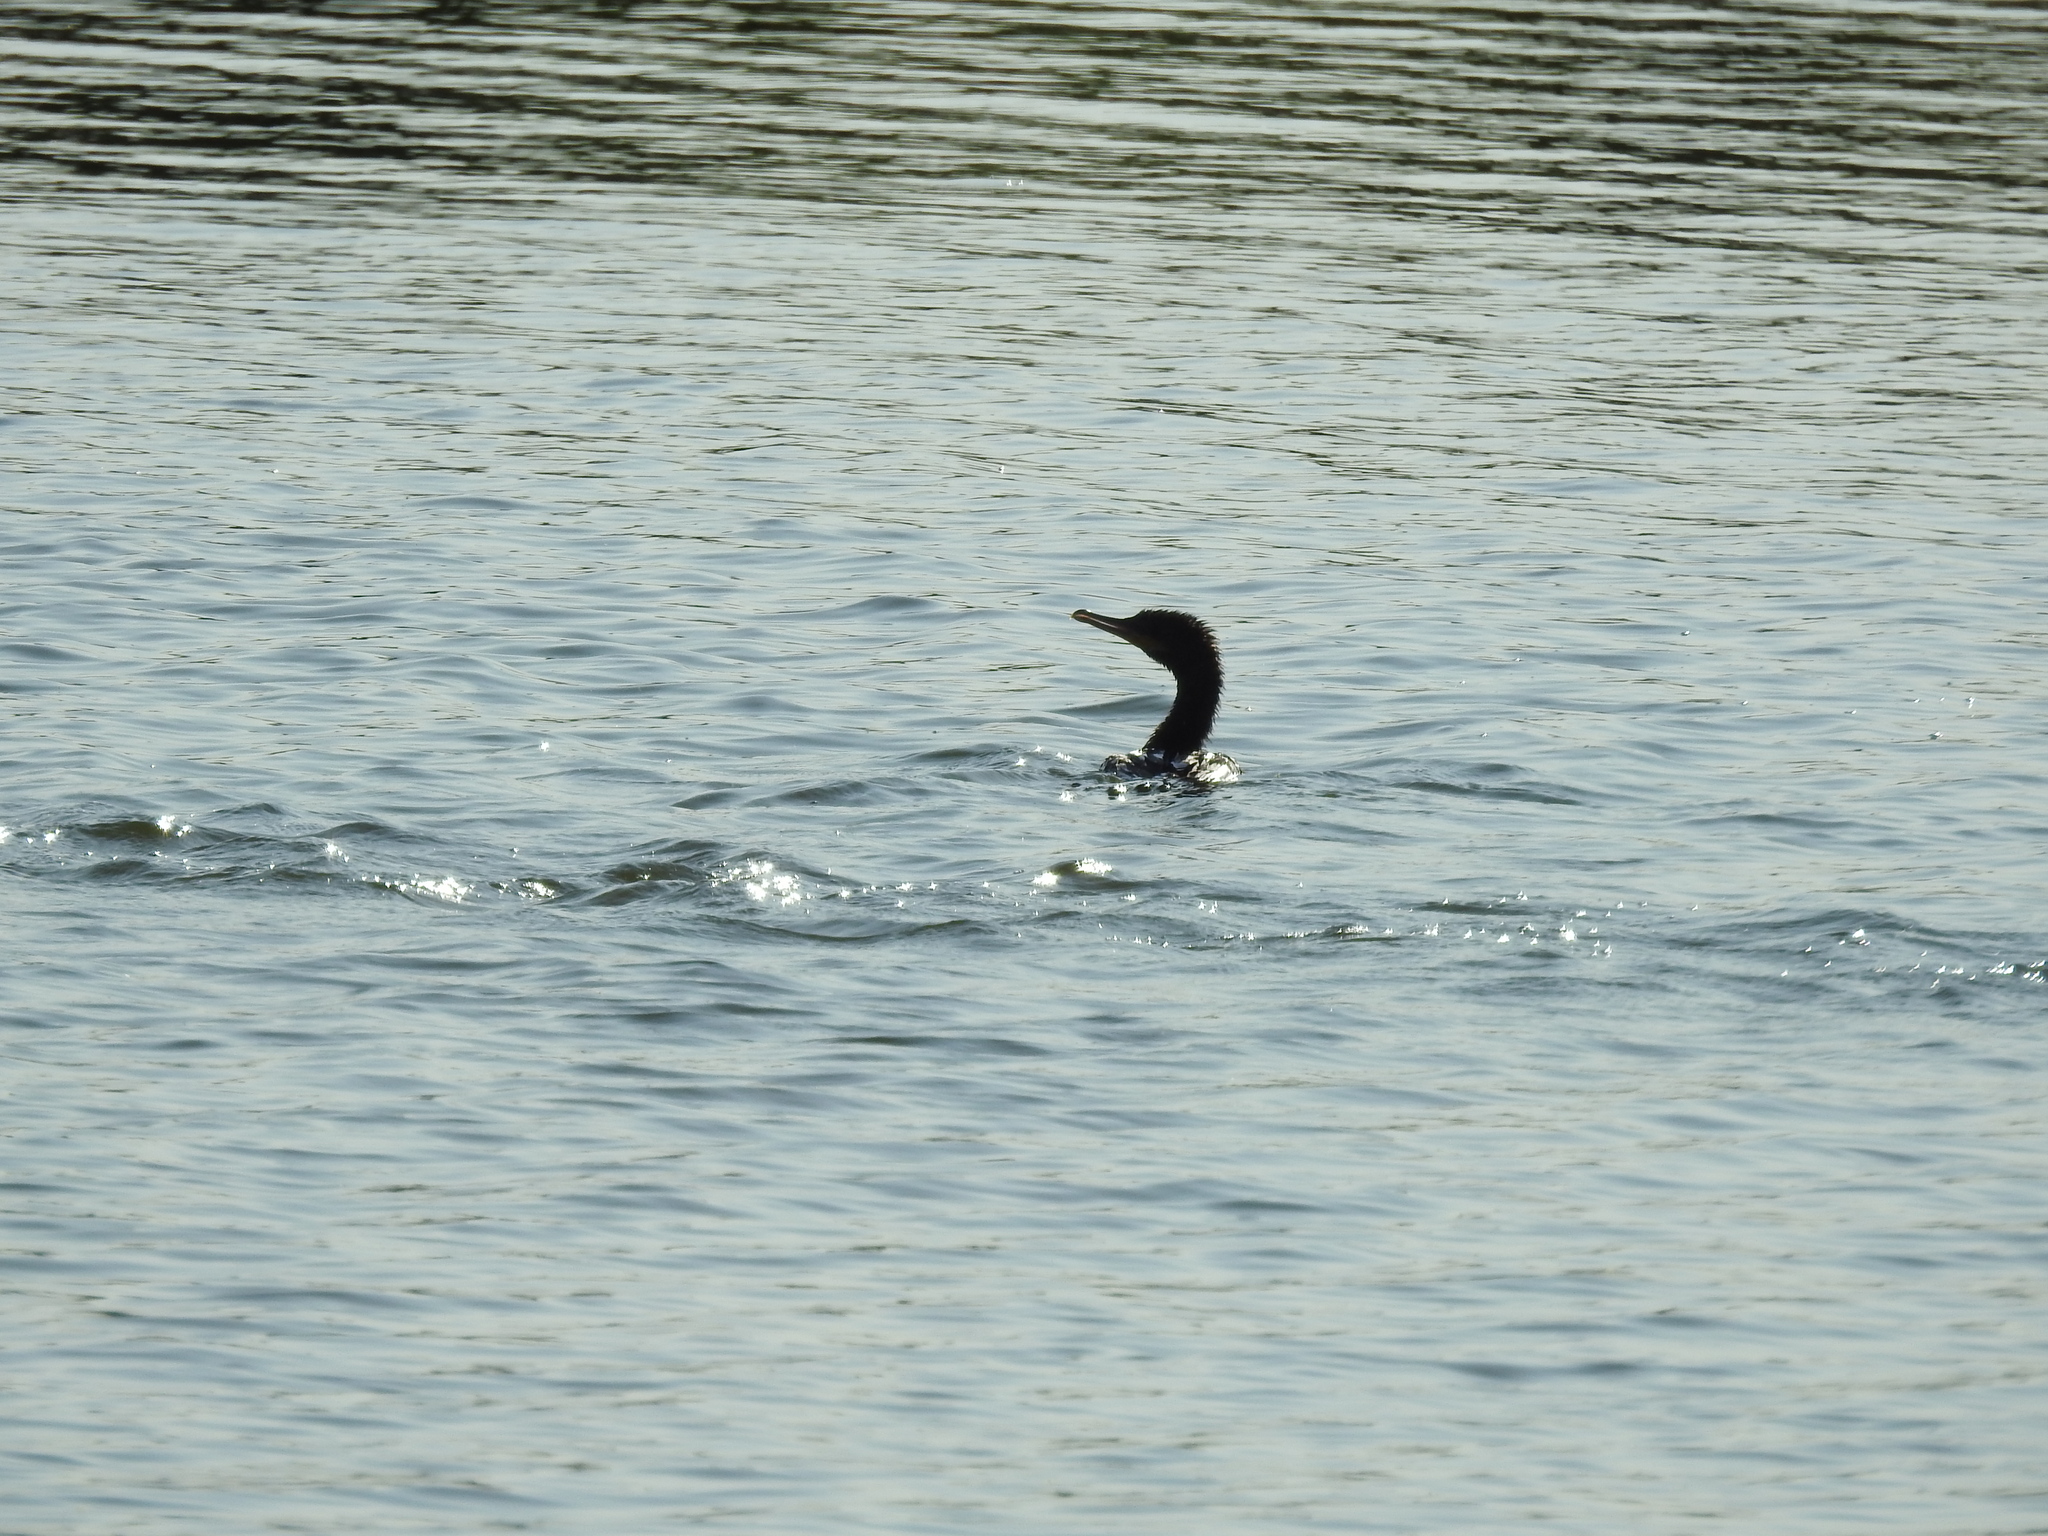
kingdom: Animalia
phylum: Chordata
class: Aves
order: Suliformes
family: Phalacrocoracidae
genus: Phalacrocorax
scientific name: Phalacrocorax brasilianus
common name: Neotropic cormorant
